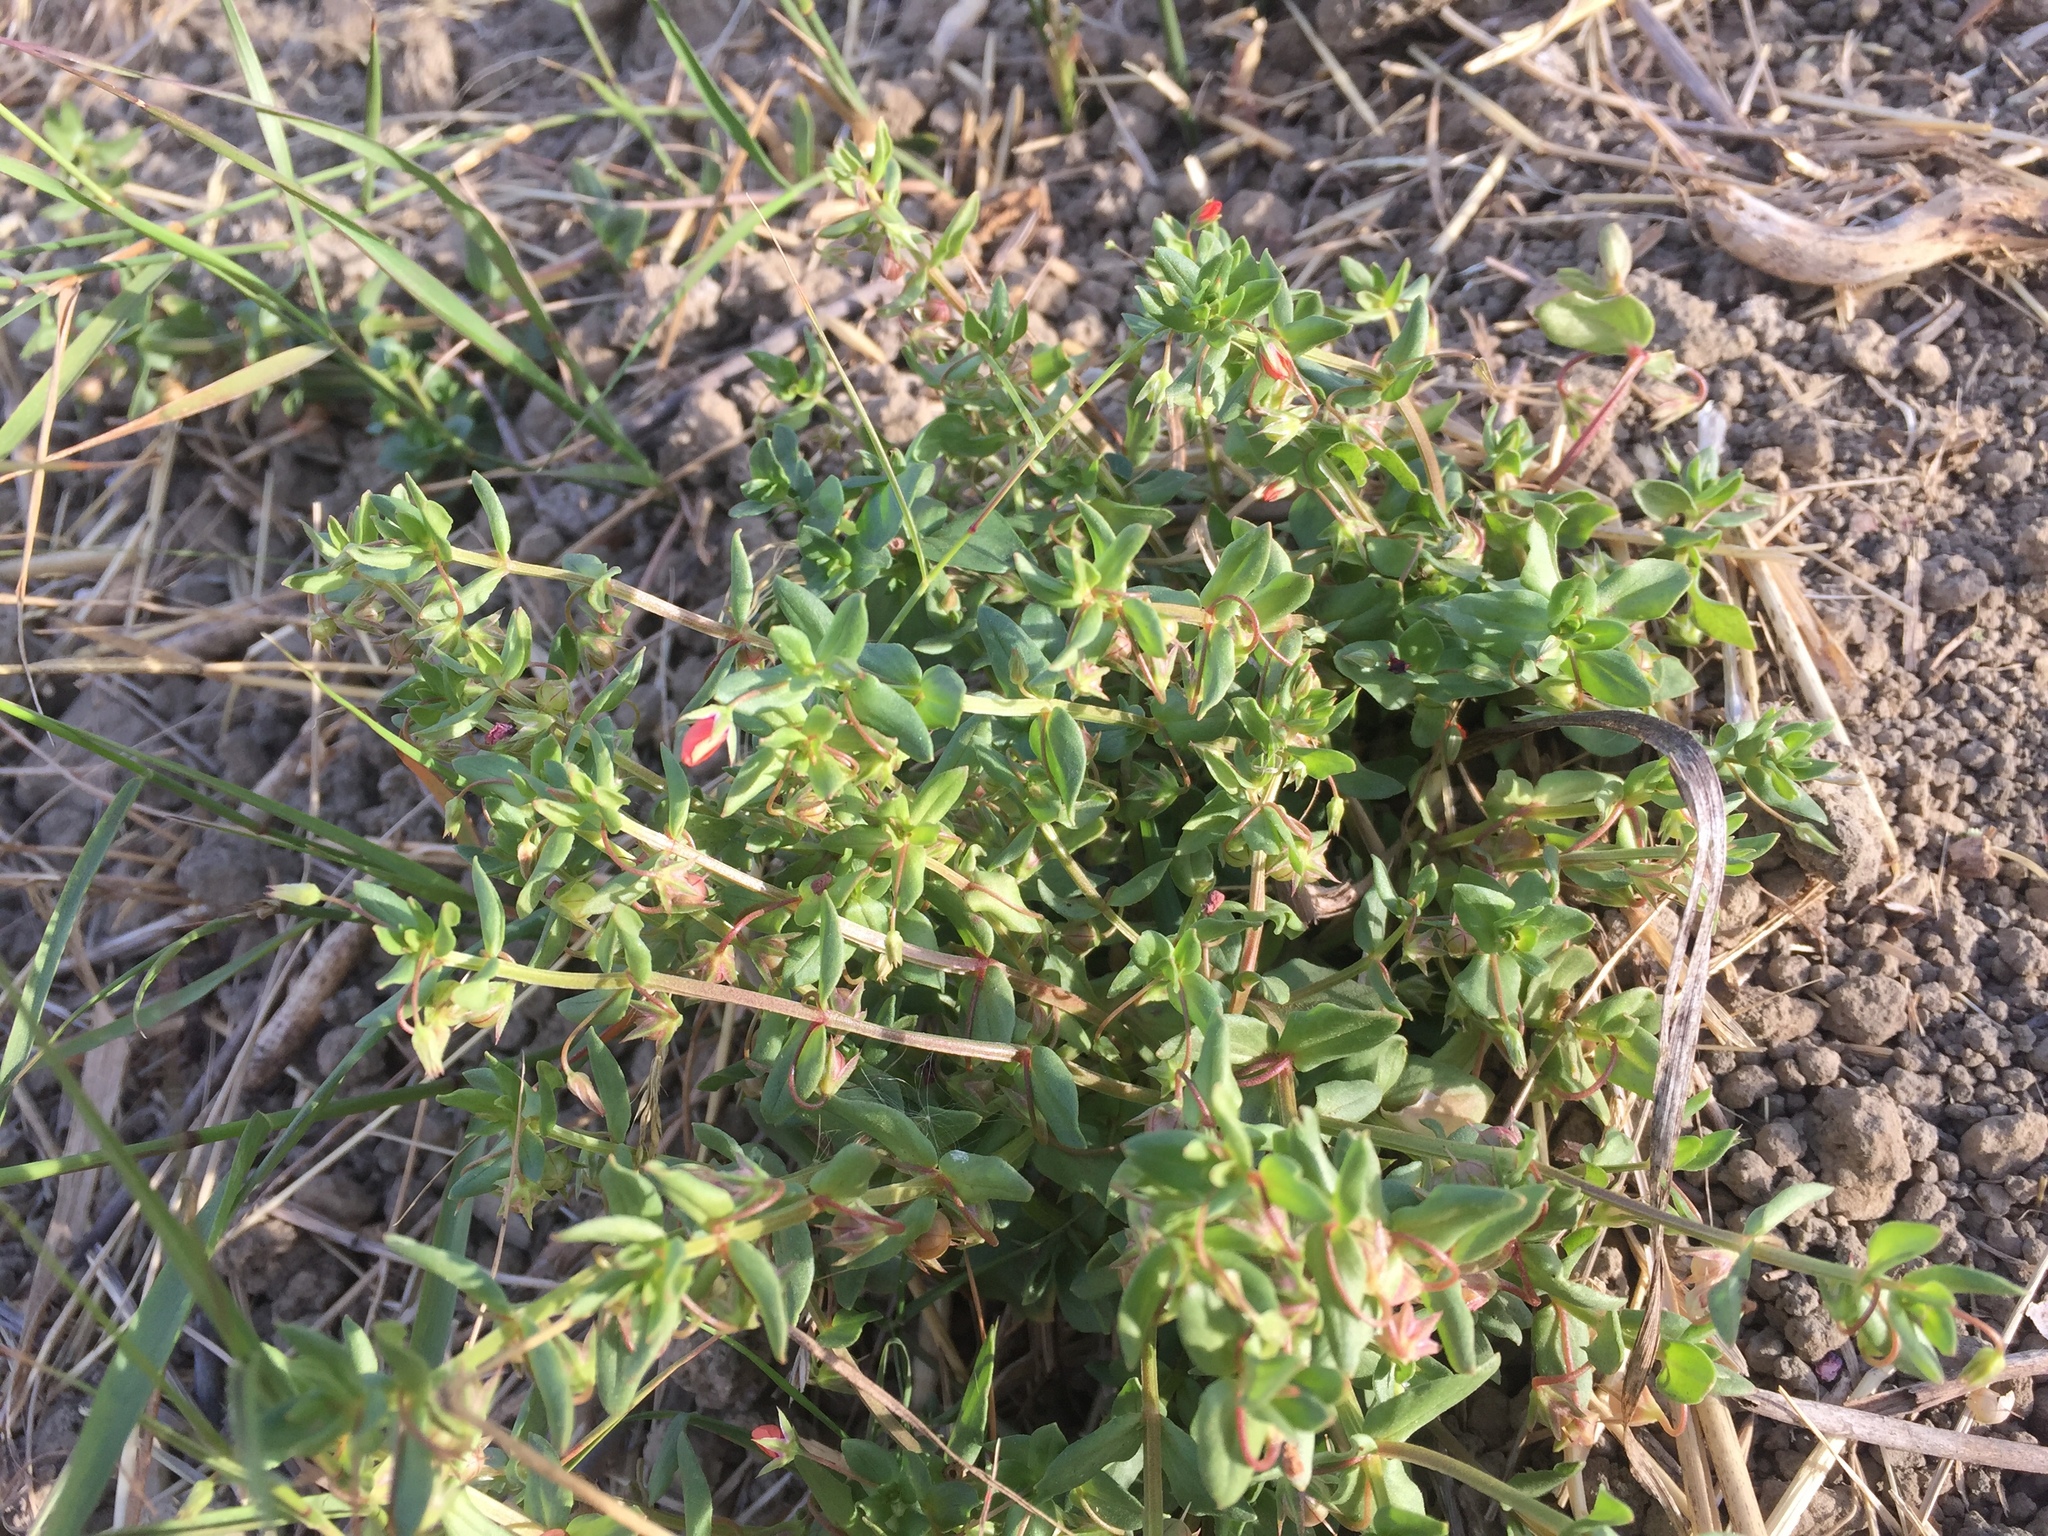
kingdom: Plantae
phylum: Tracheophyta
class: Magnoliopsida
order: Ericales
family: Primulaceae
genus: Lysimachia
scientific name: Lysimachia arvensis
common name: Scarlet pimpernel
